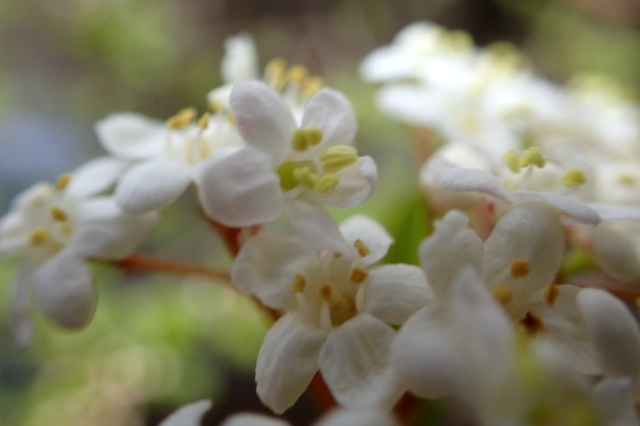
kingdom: Plantae
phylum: Tracheophyta
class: Magnoliopsida
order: Dipsacales
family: Viburnaceae
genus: Viburnum
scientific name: Viburnum obovatum
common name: Walter's viburnum
